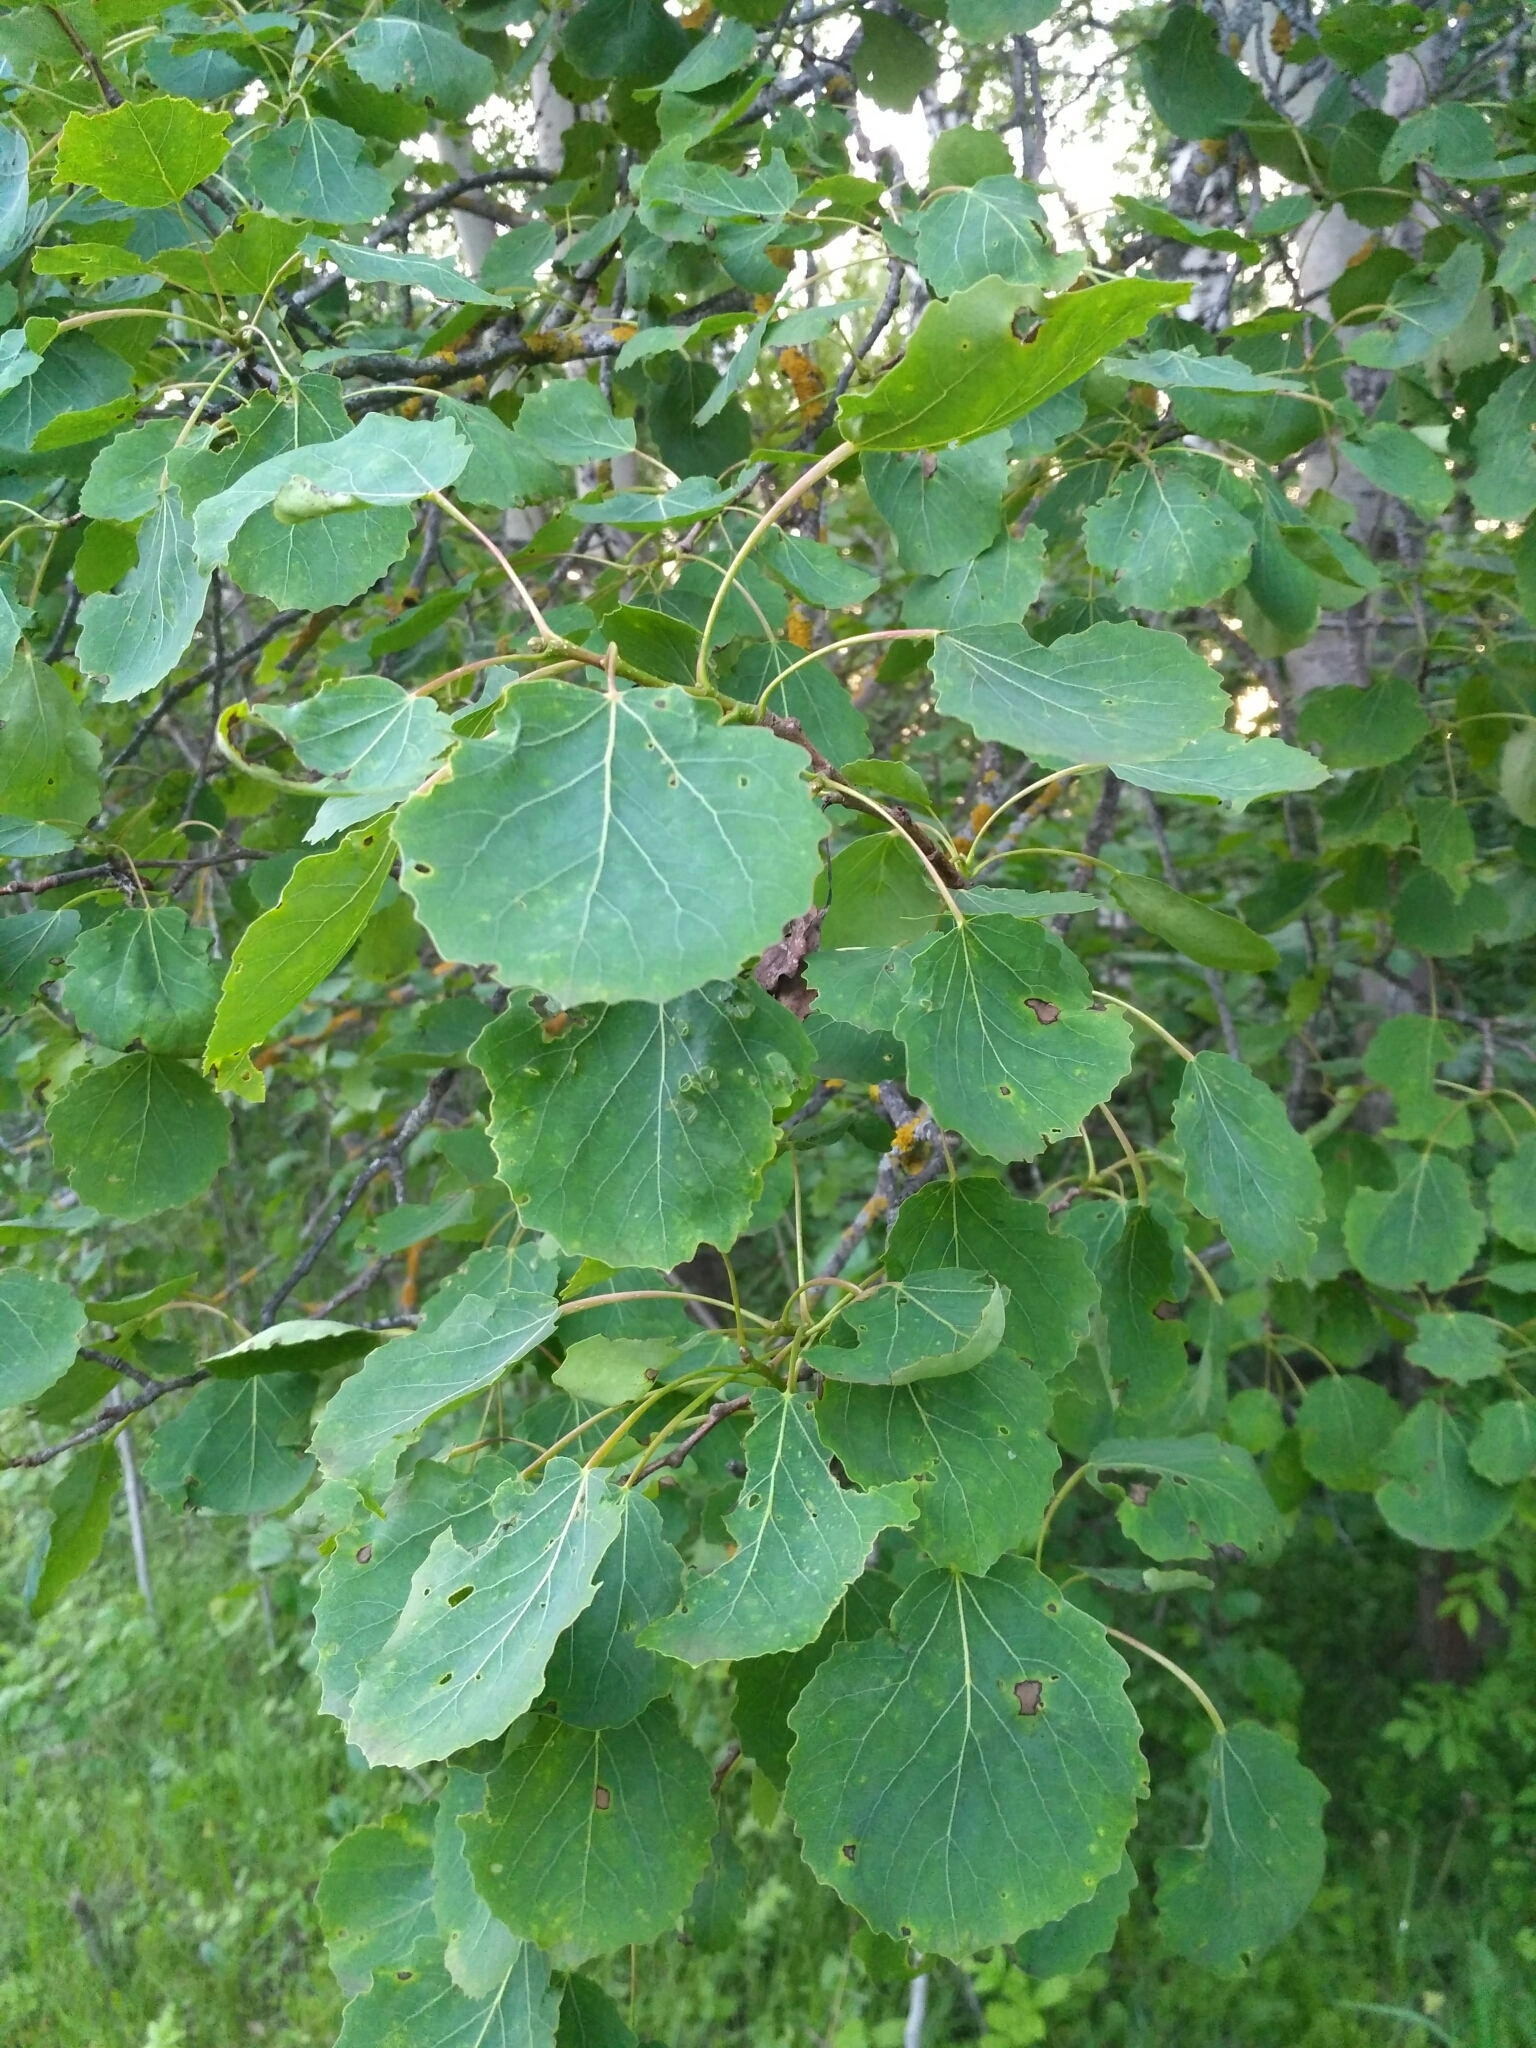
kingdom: Plantae
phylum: Tracheophyta
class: Magnoliopsida
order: Malpighiales
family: Salicaceae
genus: Populus
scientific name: Populus tremula
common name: European aspen
